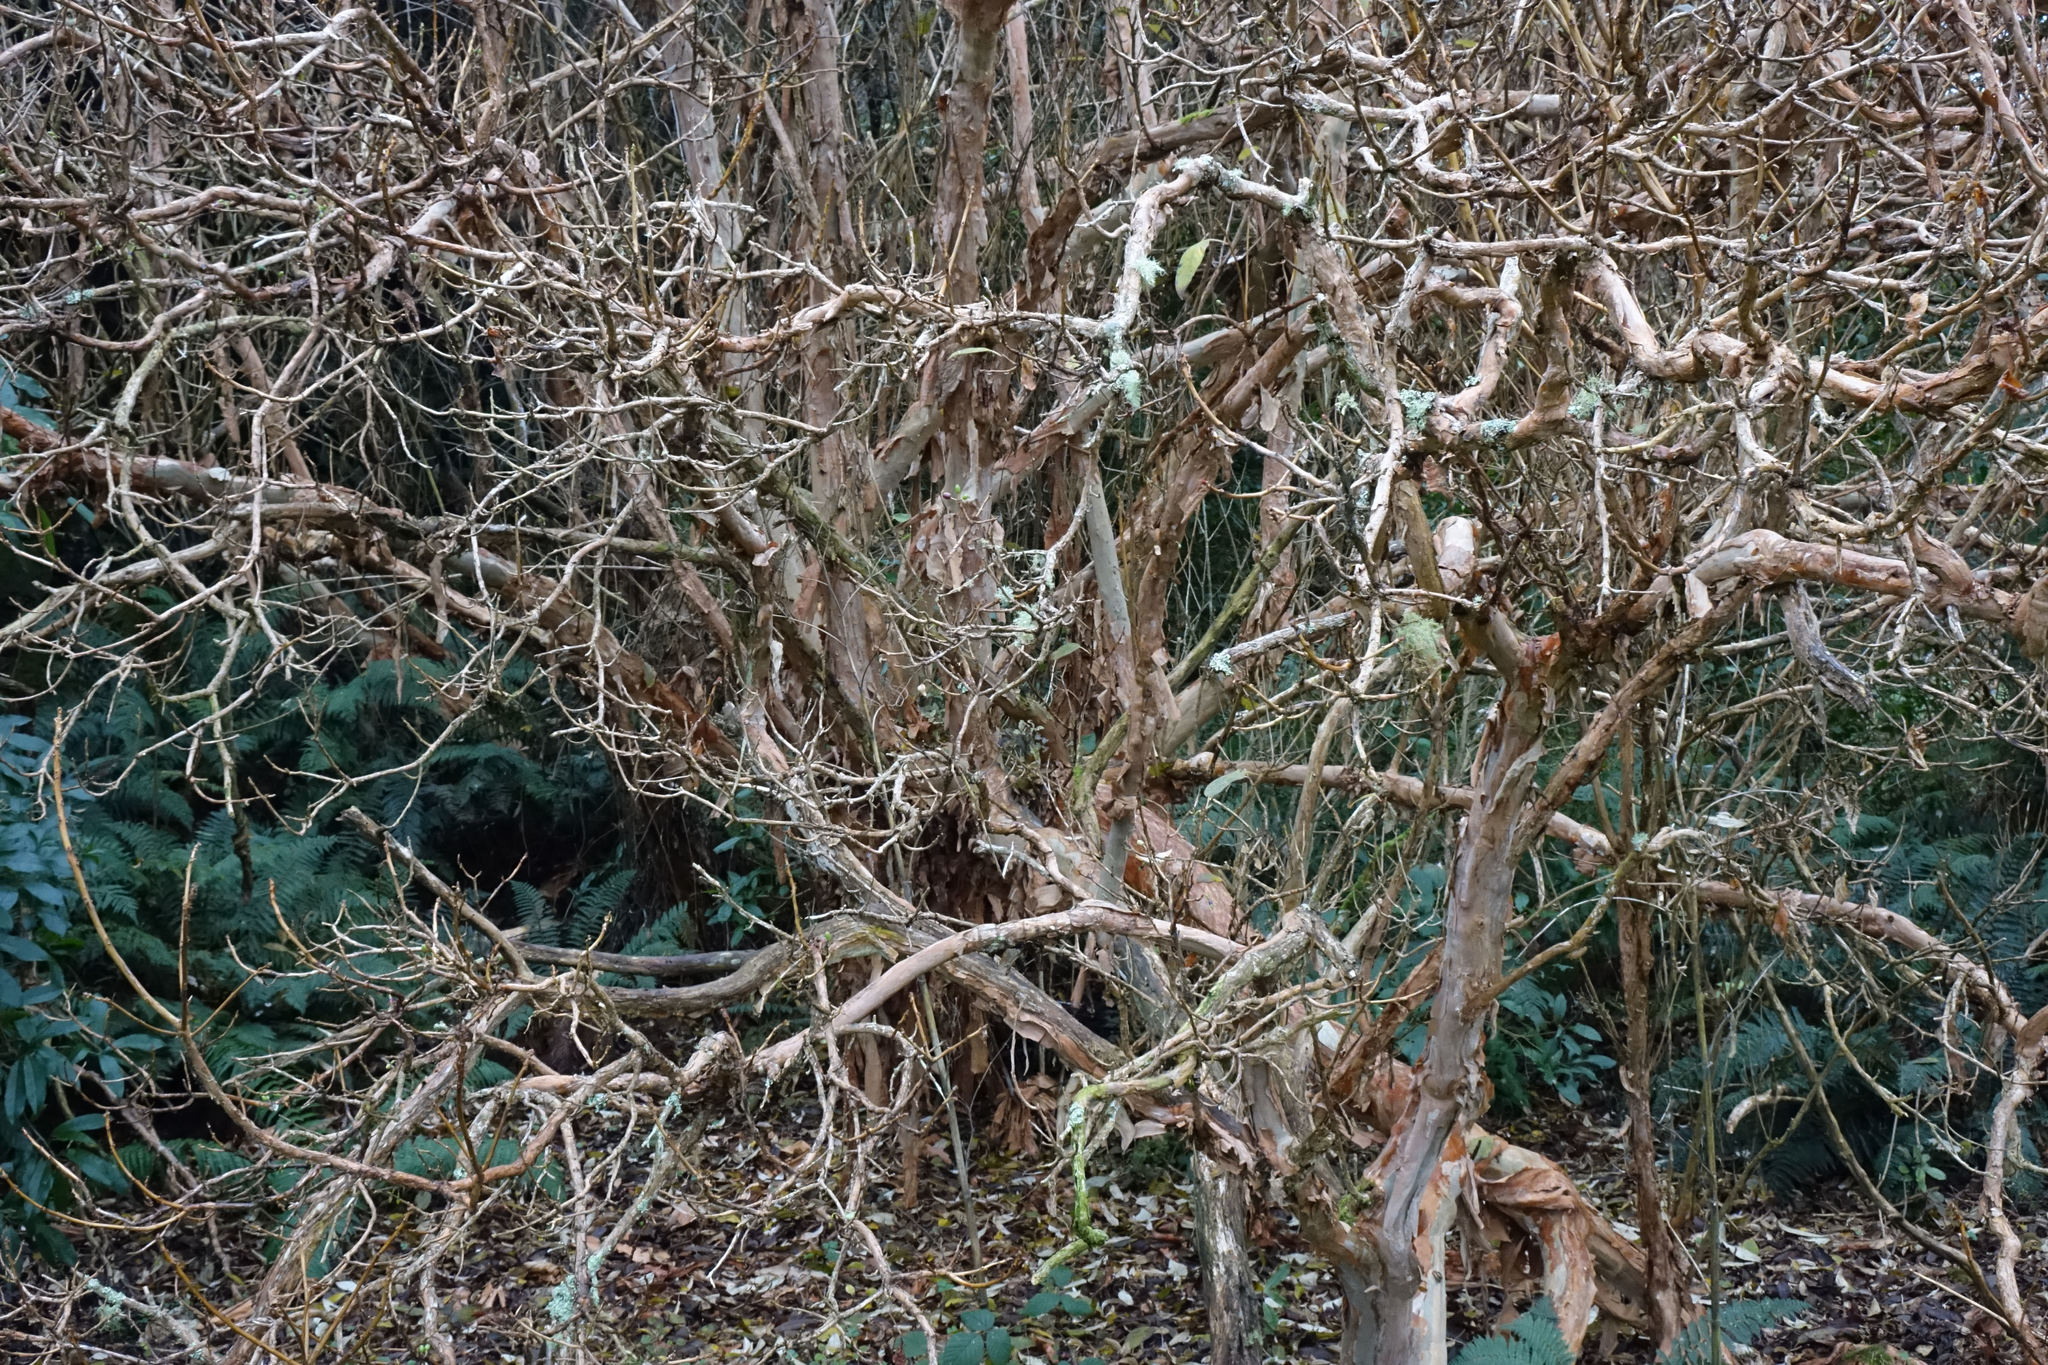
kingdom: Plantae
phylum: Tracheophyta
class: Magnoliopsida
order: Myrtales
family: Onagraceae
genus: Fuchsia
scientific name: Fuchsia excorticata
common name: Tree fuchsia
